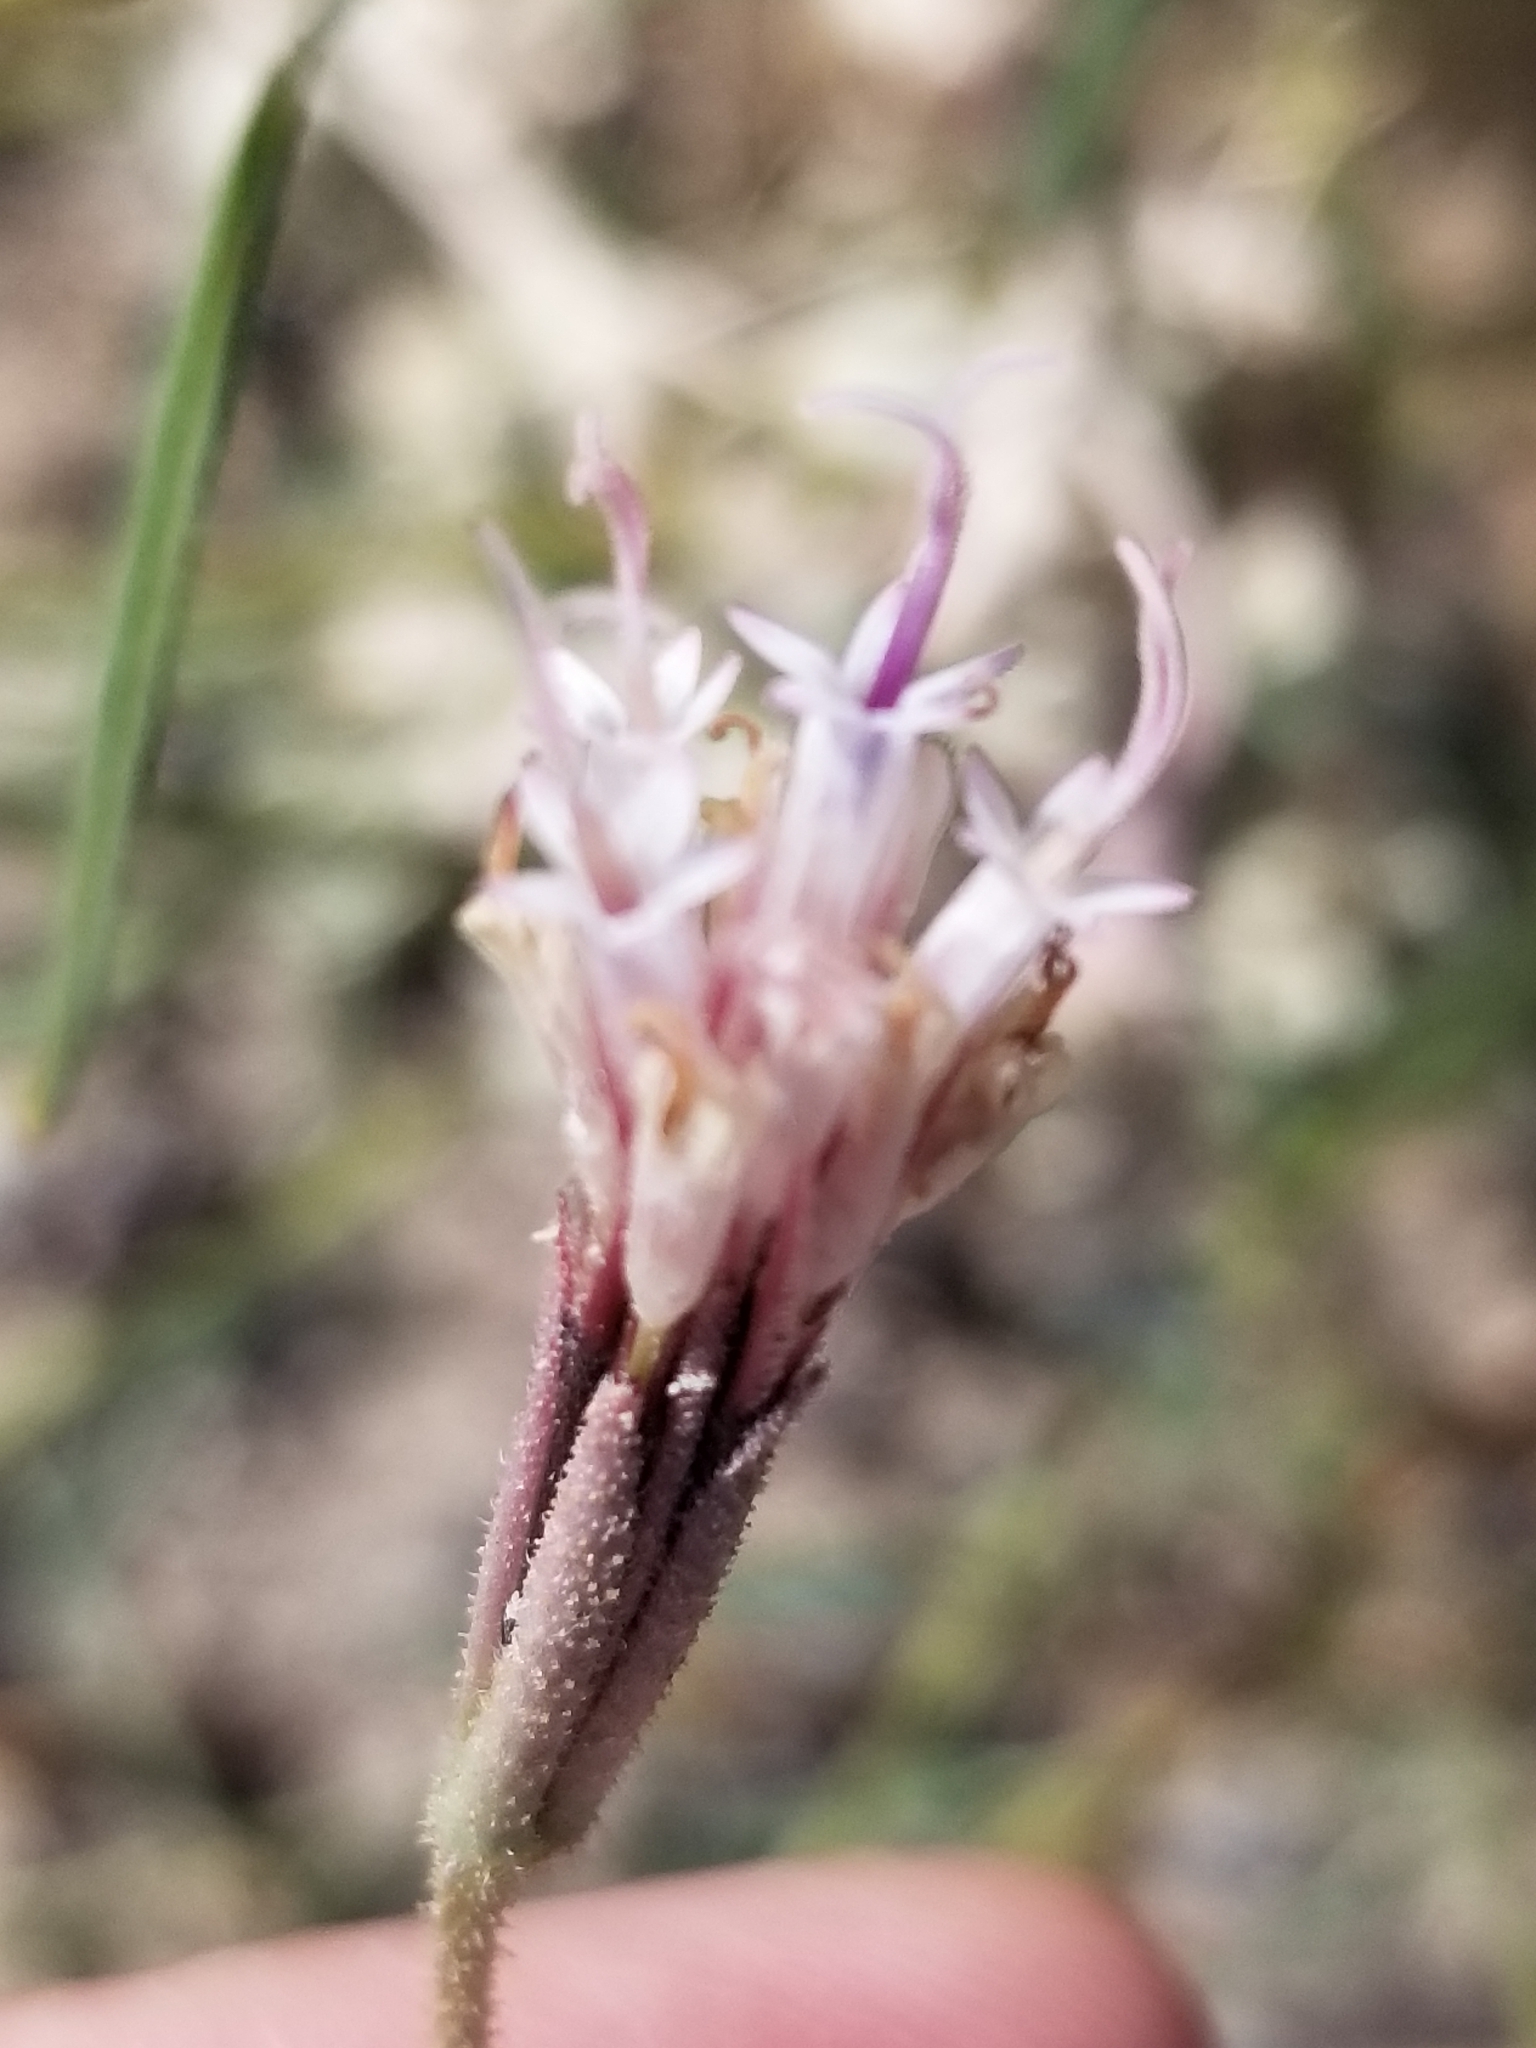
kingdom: Plantae
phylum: Tracheophyta
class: Magnoliopsida
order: Asterales
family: Asteraceae
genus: Palafoxia
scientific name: Palafoxia arida
